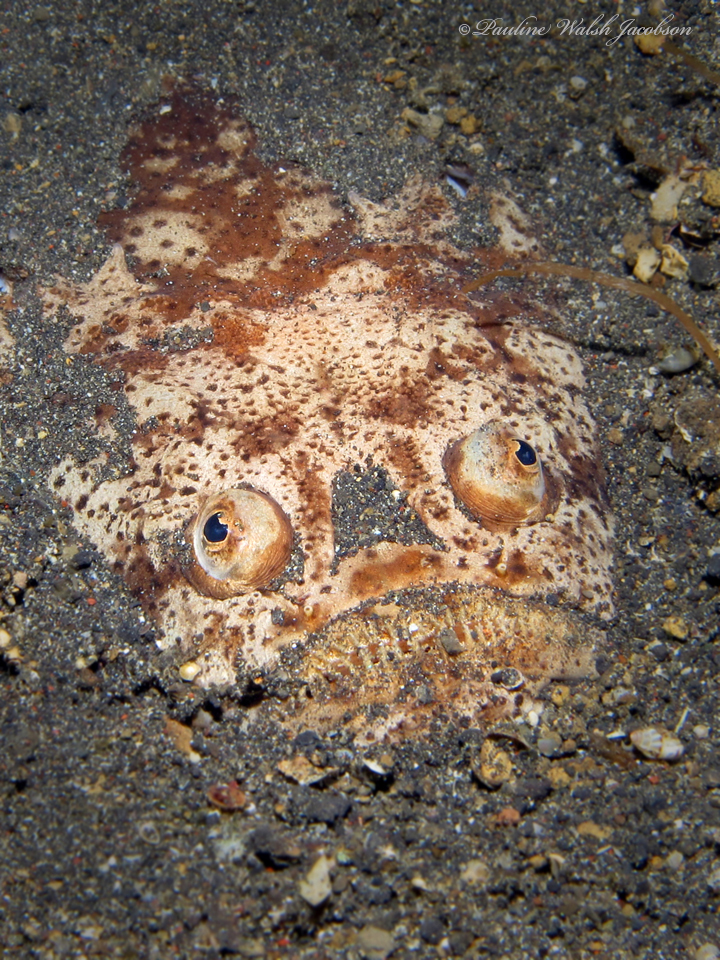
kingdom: Animalia
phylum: Chordata
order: Perciformes
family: Uranoscopidae
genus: Uranoscopus
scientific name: Uranoscopus bicinctus
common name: Marbled stargazer
